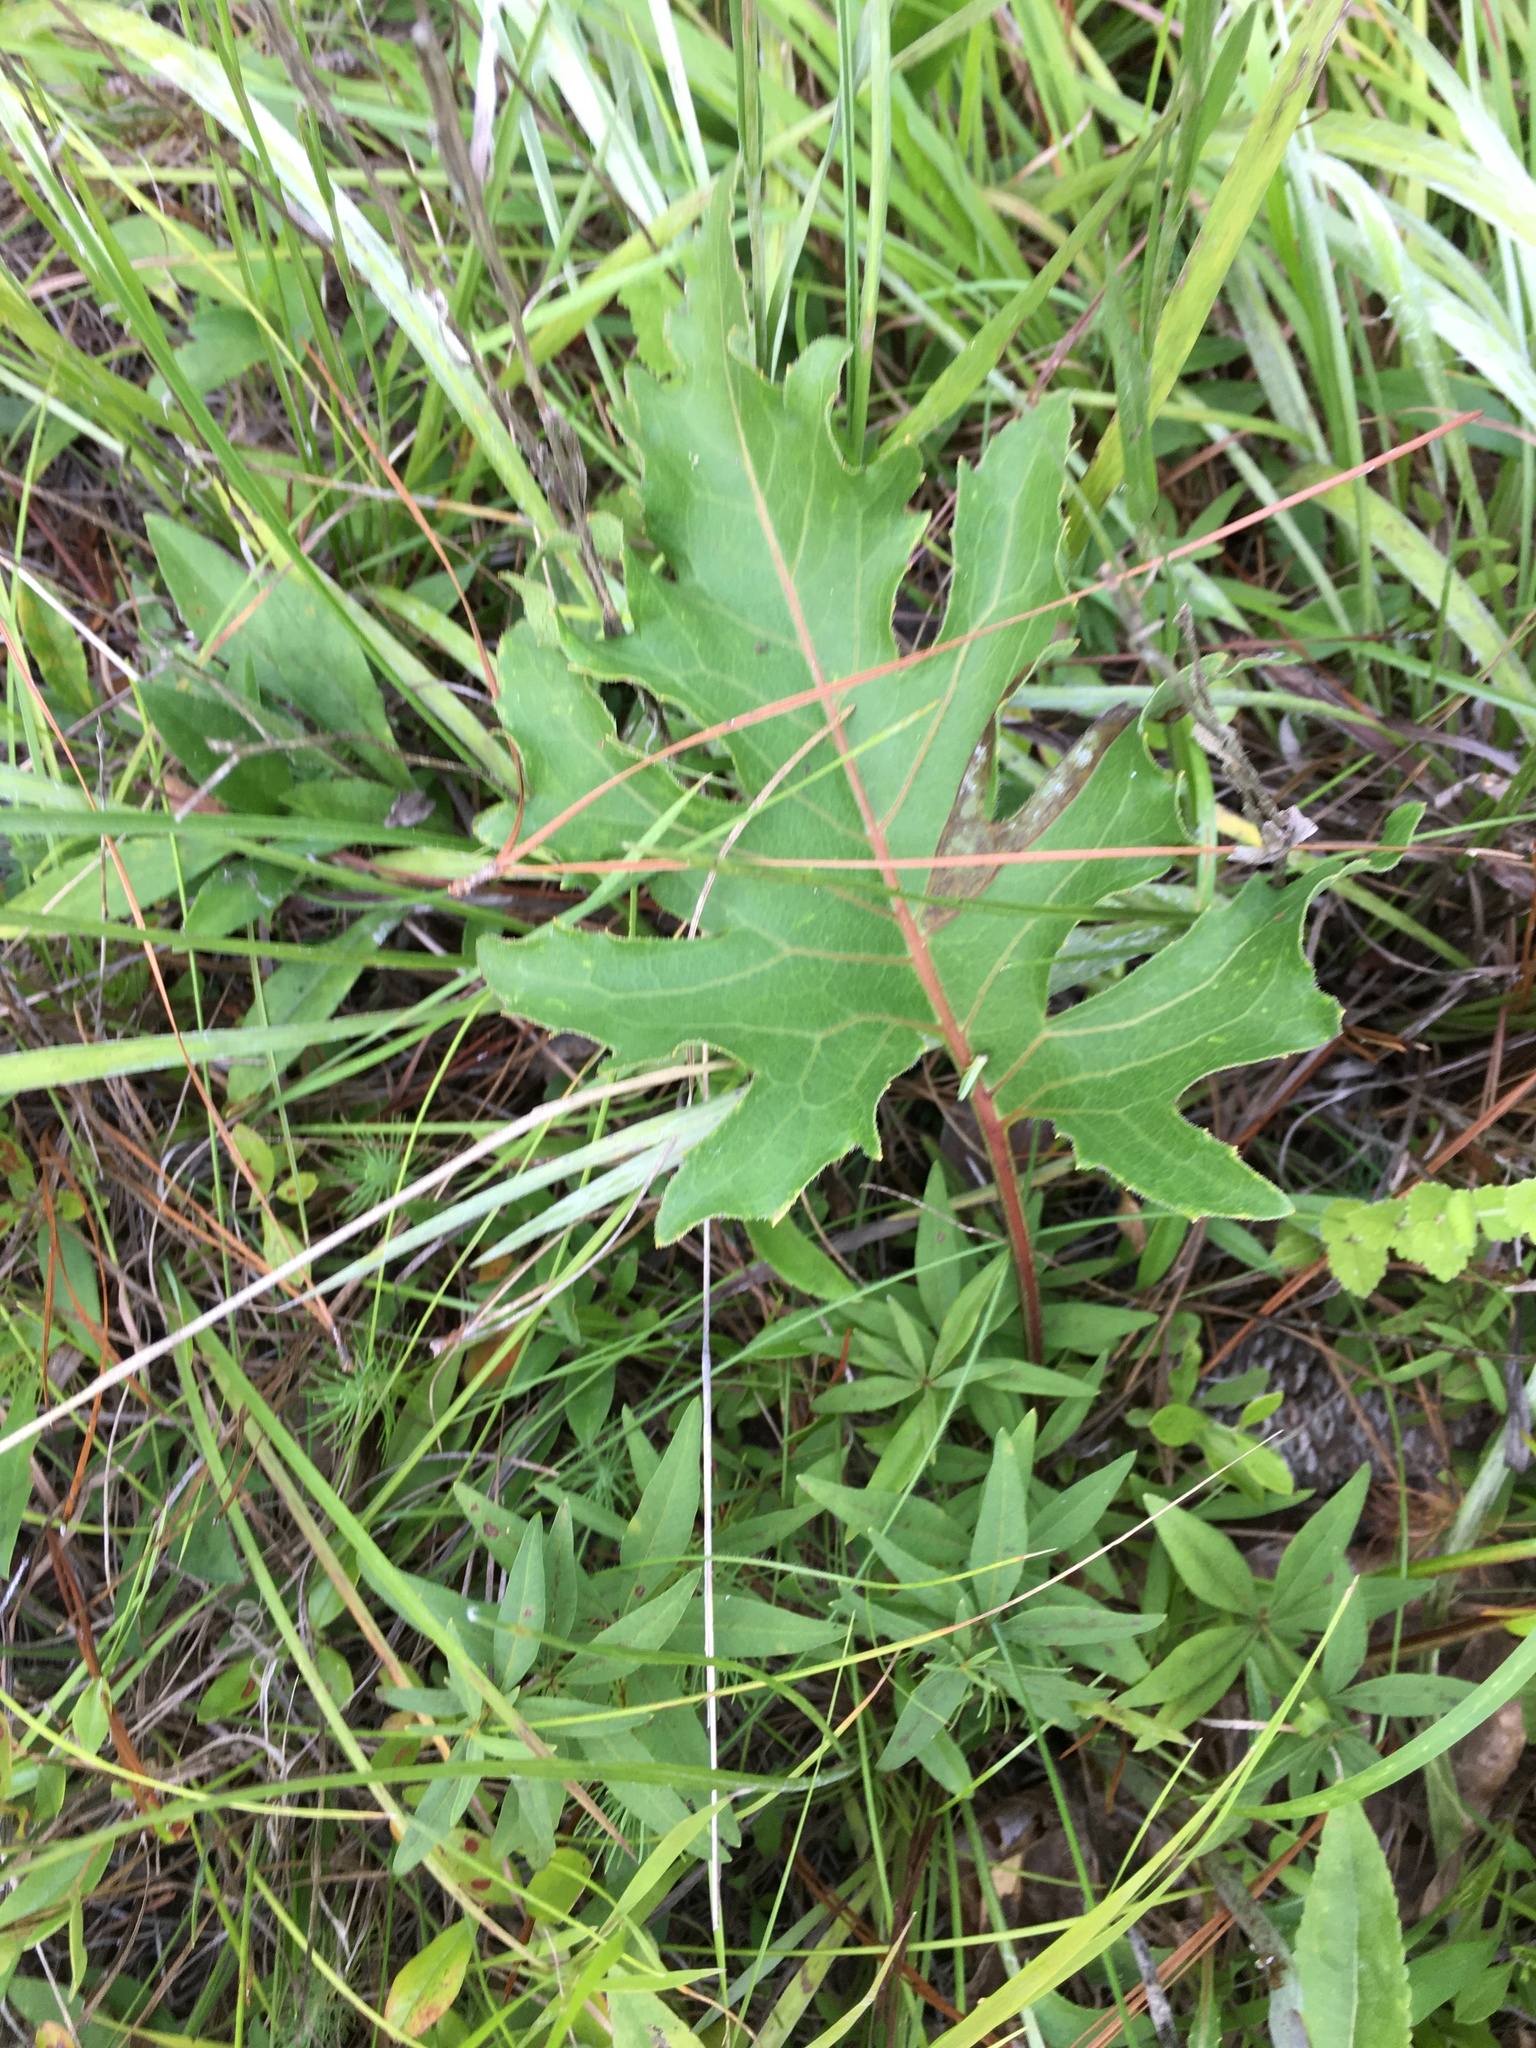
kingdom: Plantae
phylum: Tracheophyta
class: Magnoliopsida
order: Asterales
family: Asteraceae
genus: Silphium
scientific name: Silphium compositum
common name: Lesser basal-leaf rosinweed
